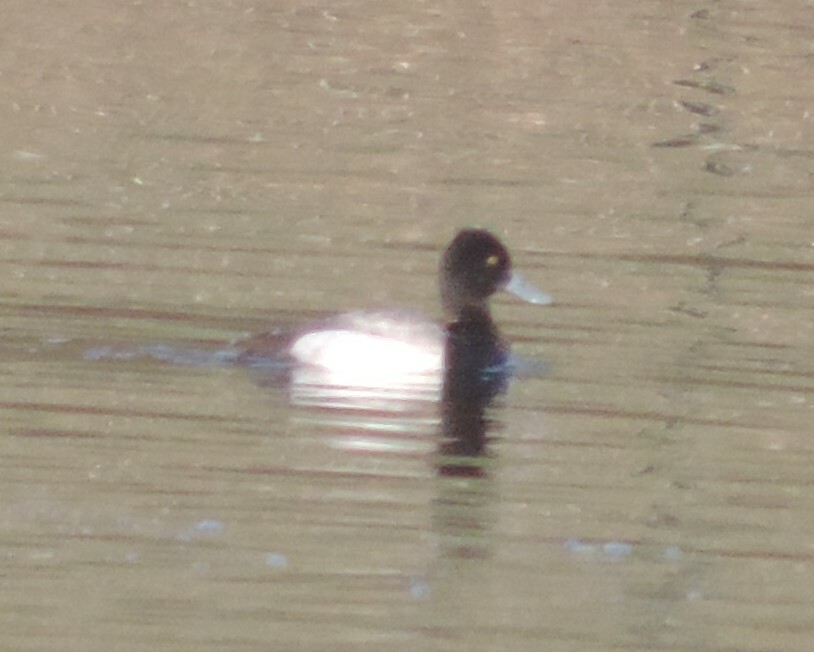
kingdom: Animalia
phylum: Chordata
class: Aves
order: Anseriformes
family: Anatidae
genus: Aythya
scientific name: Aythya affinis
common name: Lesser scaup
